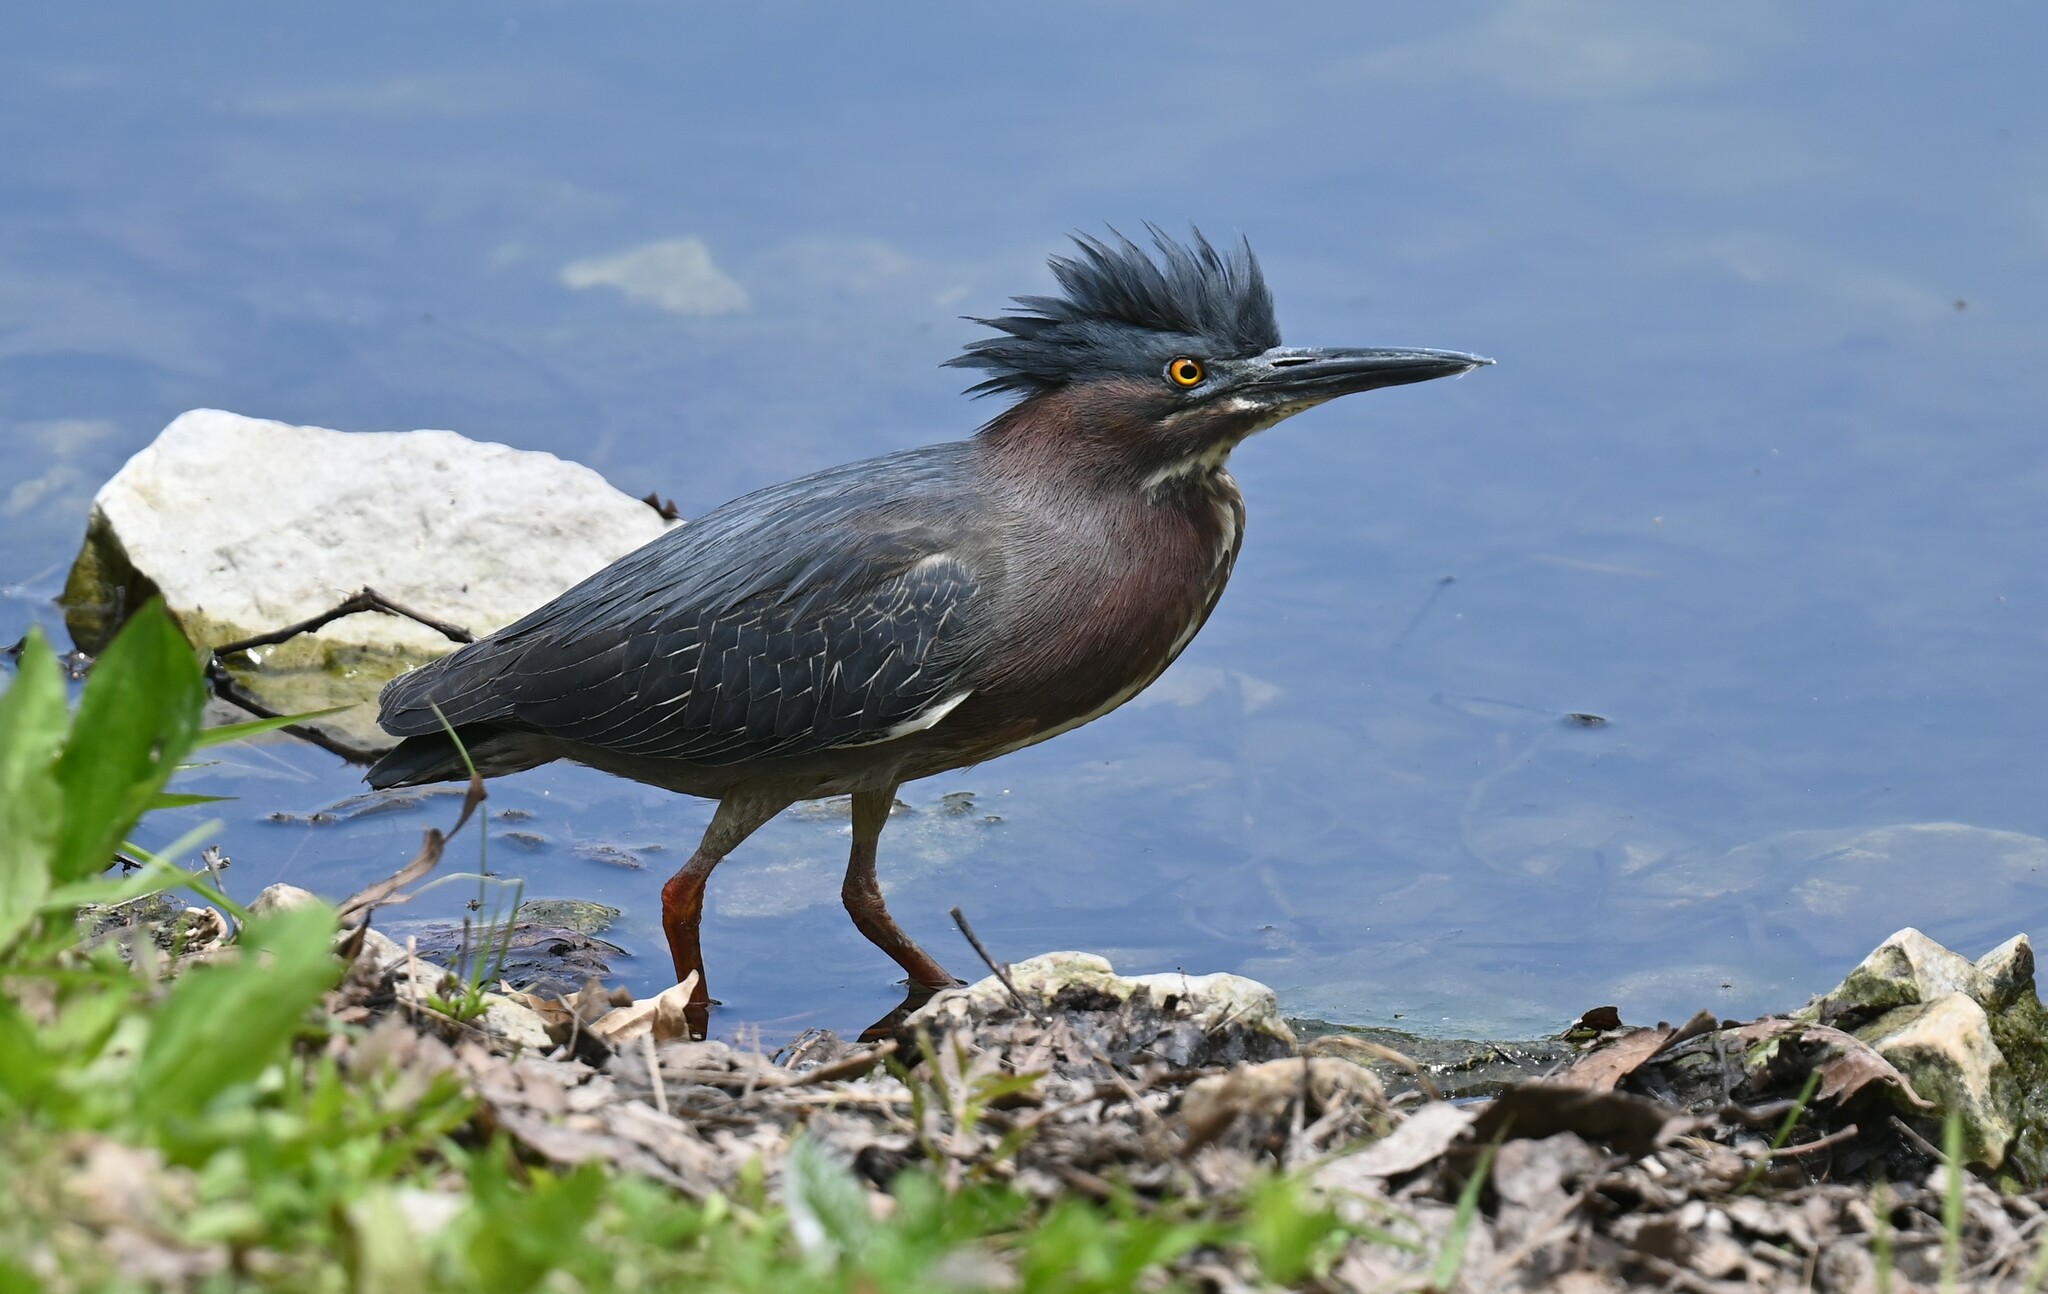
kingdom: Animalia
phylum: Chordata
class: Aves
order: Pelecaniformes
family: Ardeidae
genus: Butorides
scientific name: Butorides virescens
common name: Green heron
